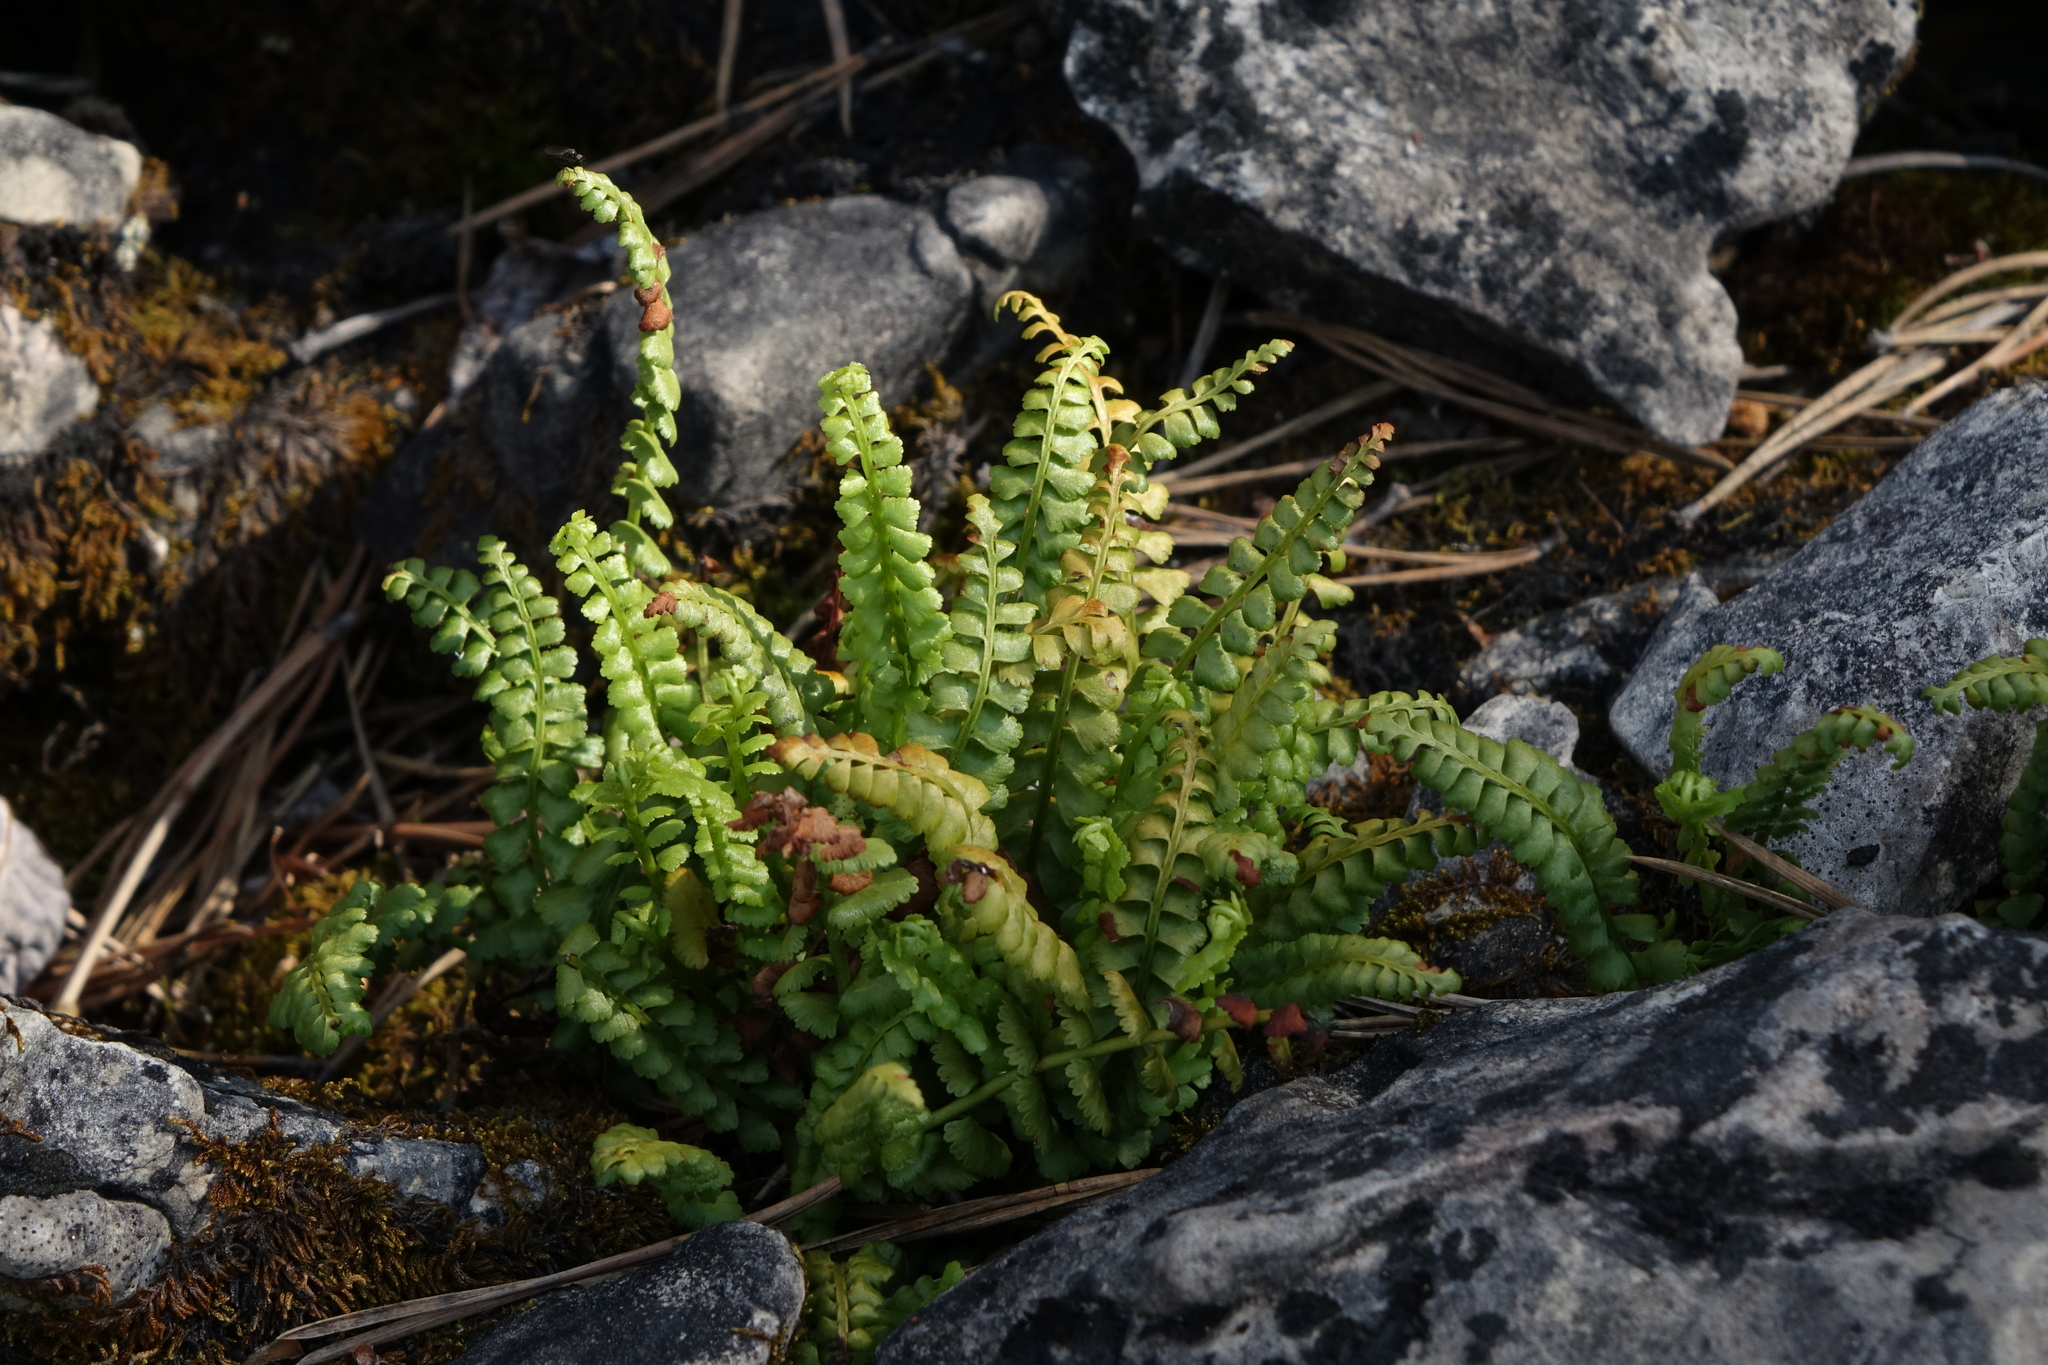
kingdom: Plantae
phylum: Tracheophyta
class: Polypodiopsida
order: Polypodiales
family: Aspleniaceae
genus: Asplenium
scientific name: Asplenium viride
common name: Green spleenwort
